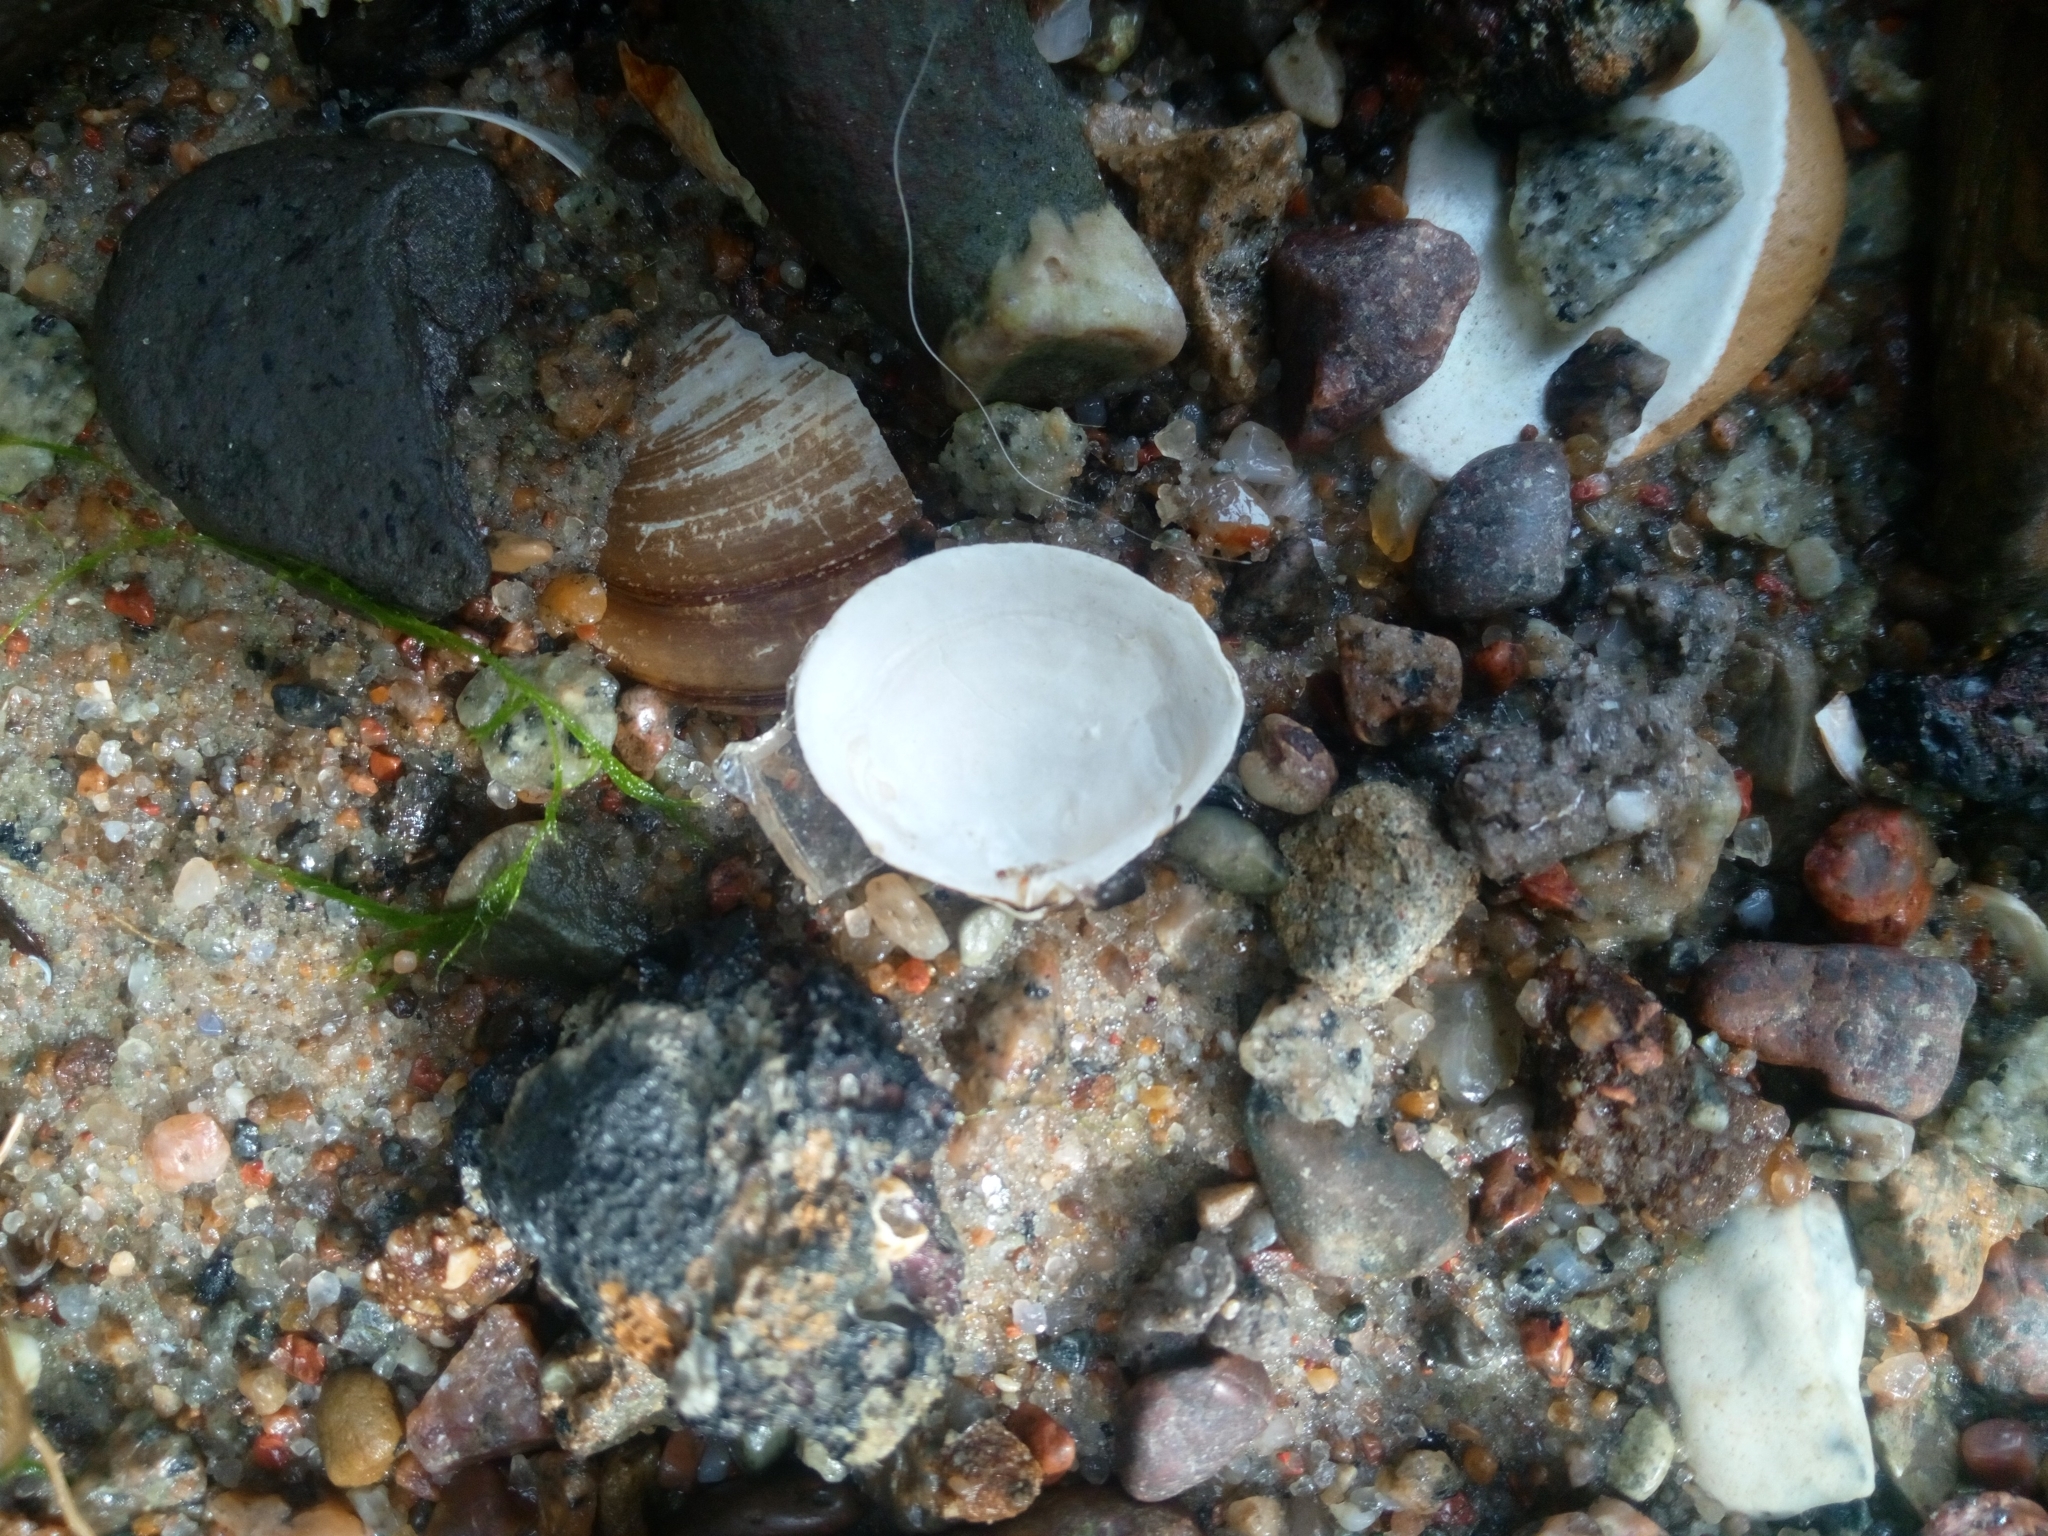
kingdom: Animalia
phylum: Mollusca
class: Bivalvia
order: Cardiida
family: Tellinidae
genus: Macoma
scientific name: Macoma balthica
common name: Baltic tellin
